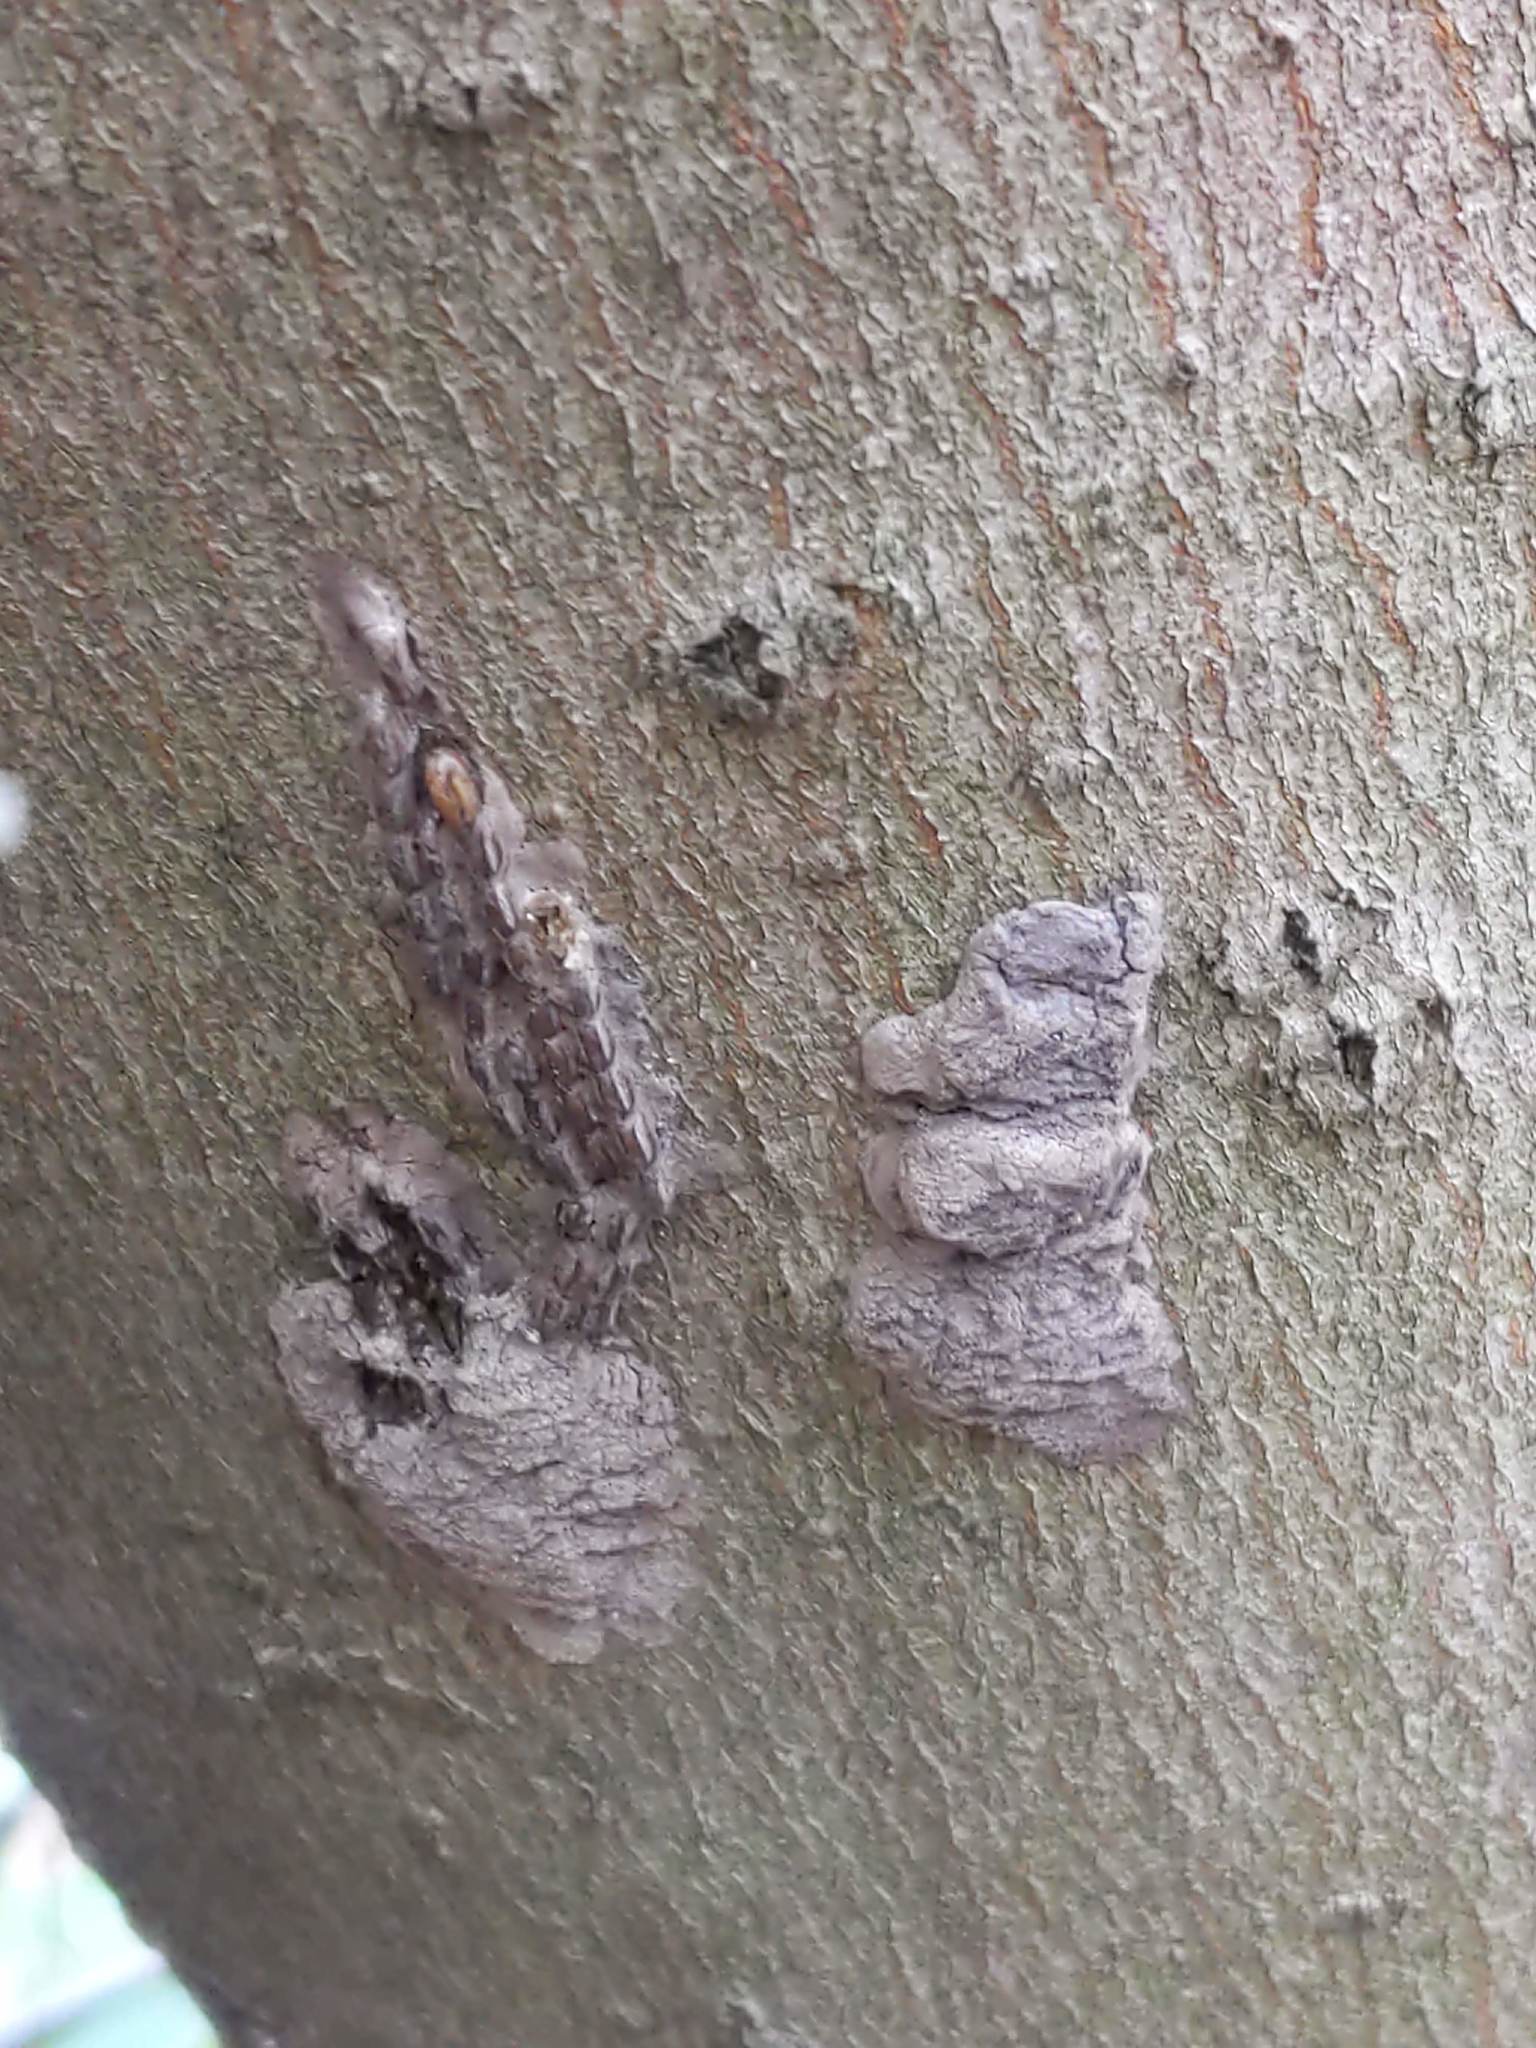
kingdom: Animalia
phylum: Arthropoda
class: Insecta
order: Hemiptera
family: Fulgoridae
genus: Lycorma
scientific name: Lycorma delicatula
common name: Spotted lanternfly
